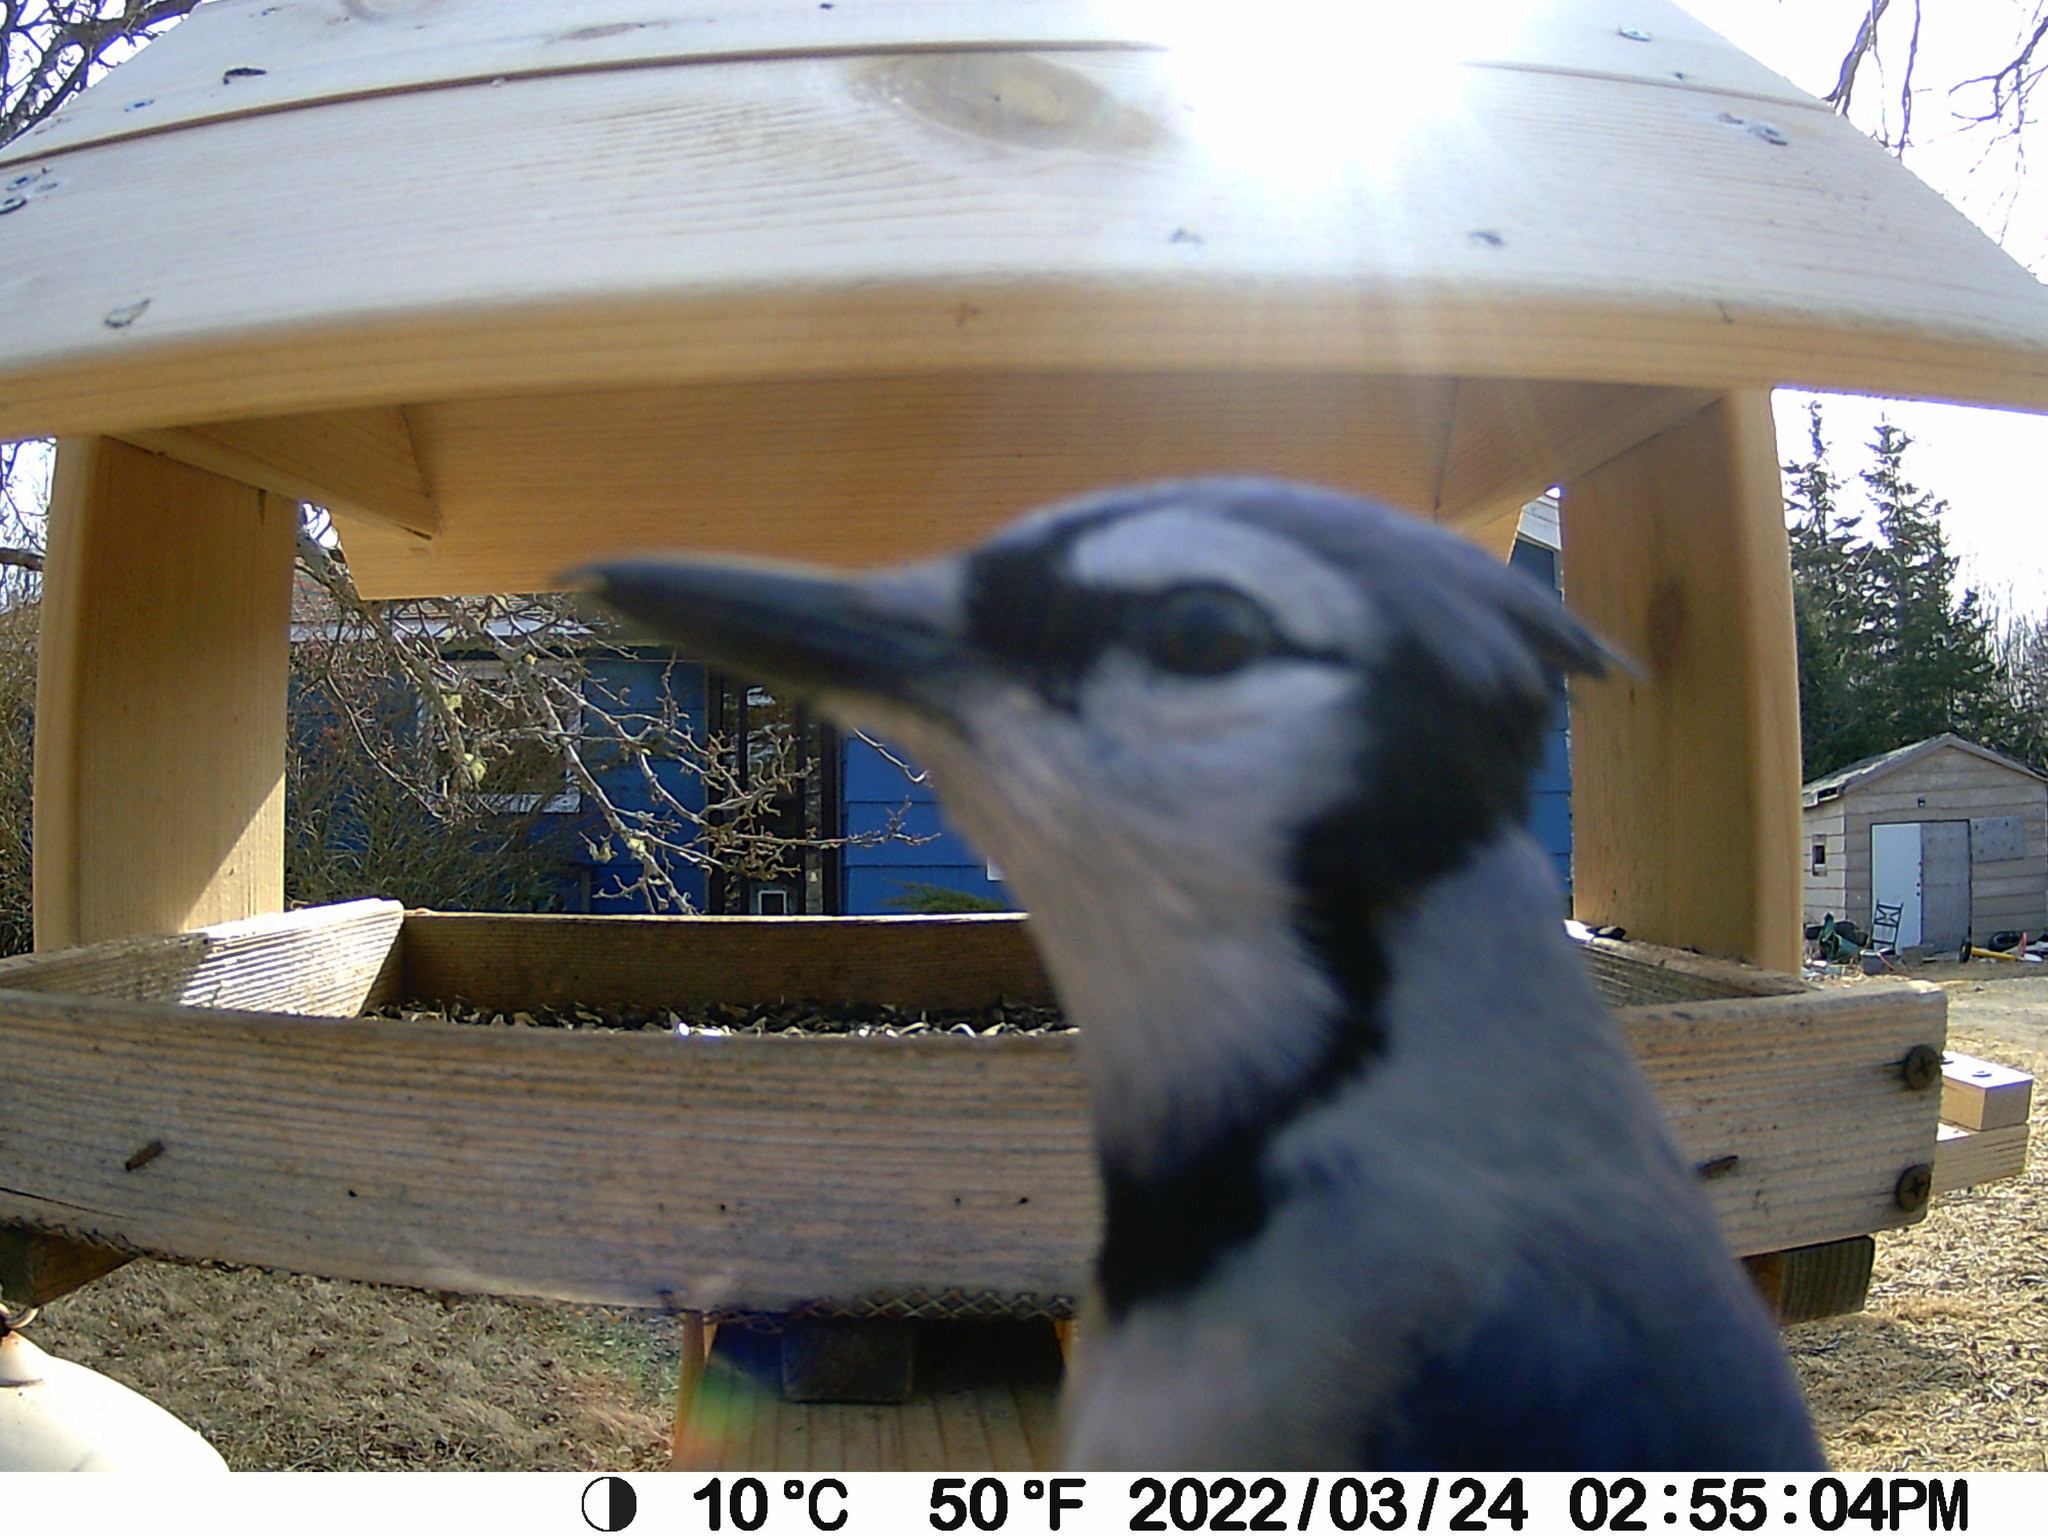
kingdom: Animalia
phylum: Chordata
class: Aves
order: Passeriformes
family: Corvidae
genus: Cyanocitta
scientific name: Cyanocitta cristata
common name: Blue jay
